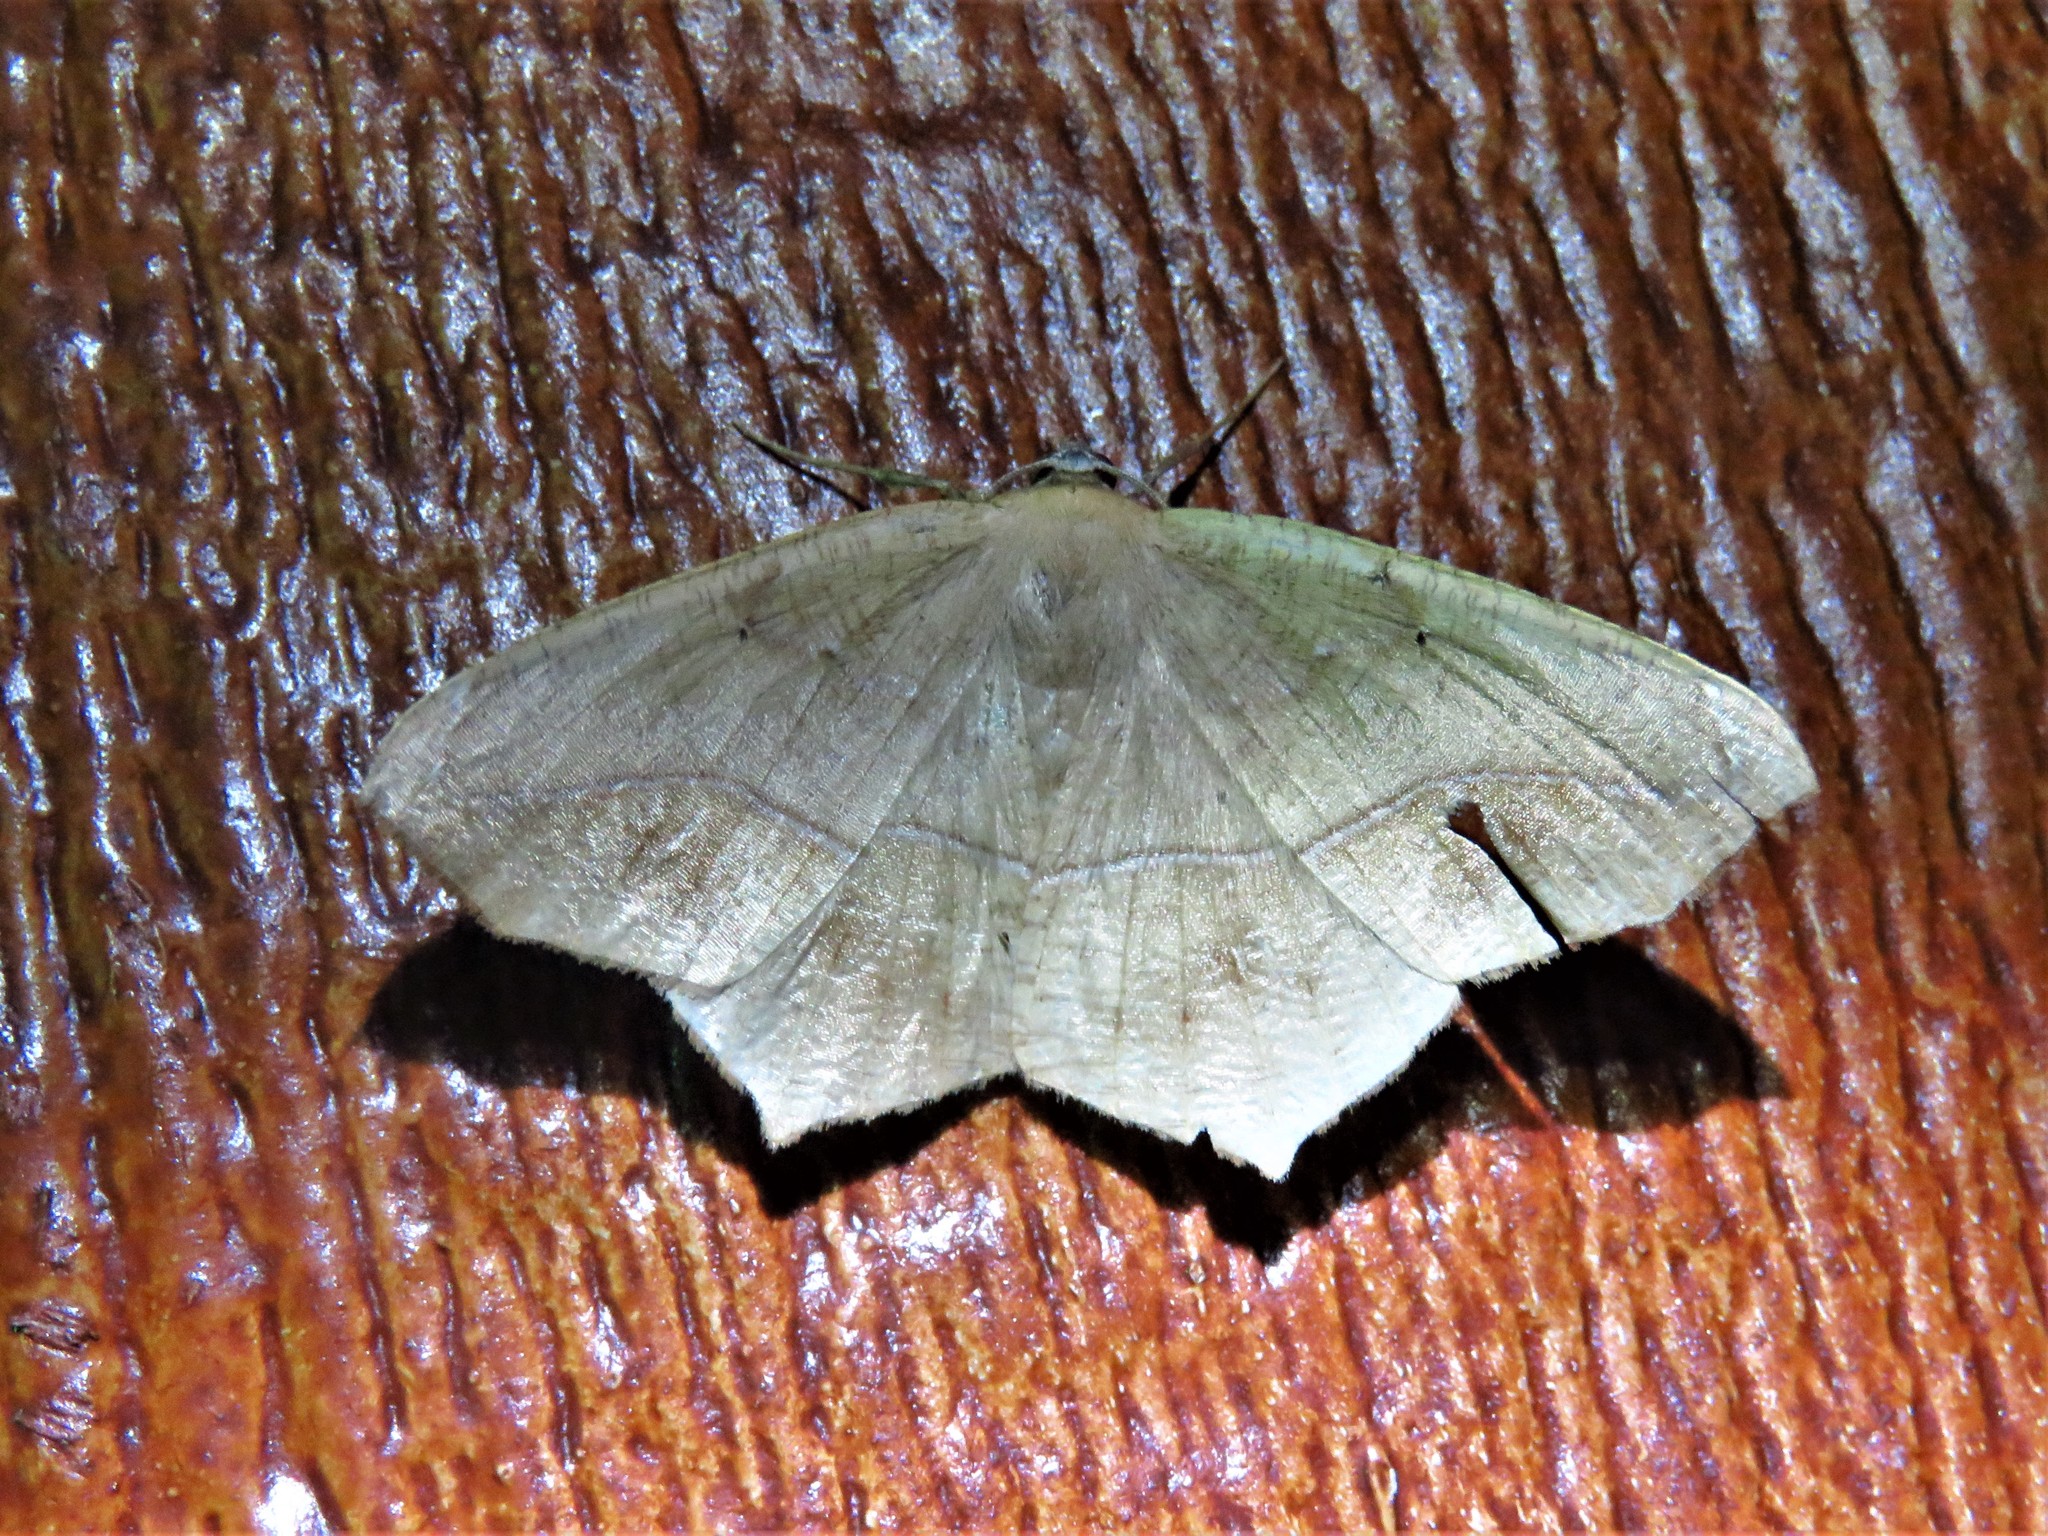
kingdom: Animalia
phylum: Arthropoda
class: Insecta
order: Lepidoptera
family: Geometridae
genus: Prochoerodes
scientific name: Prochoerodes lineola
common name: Large maple spanworm
